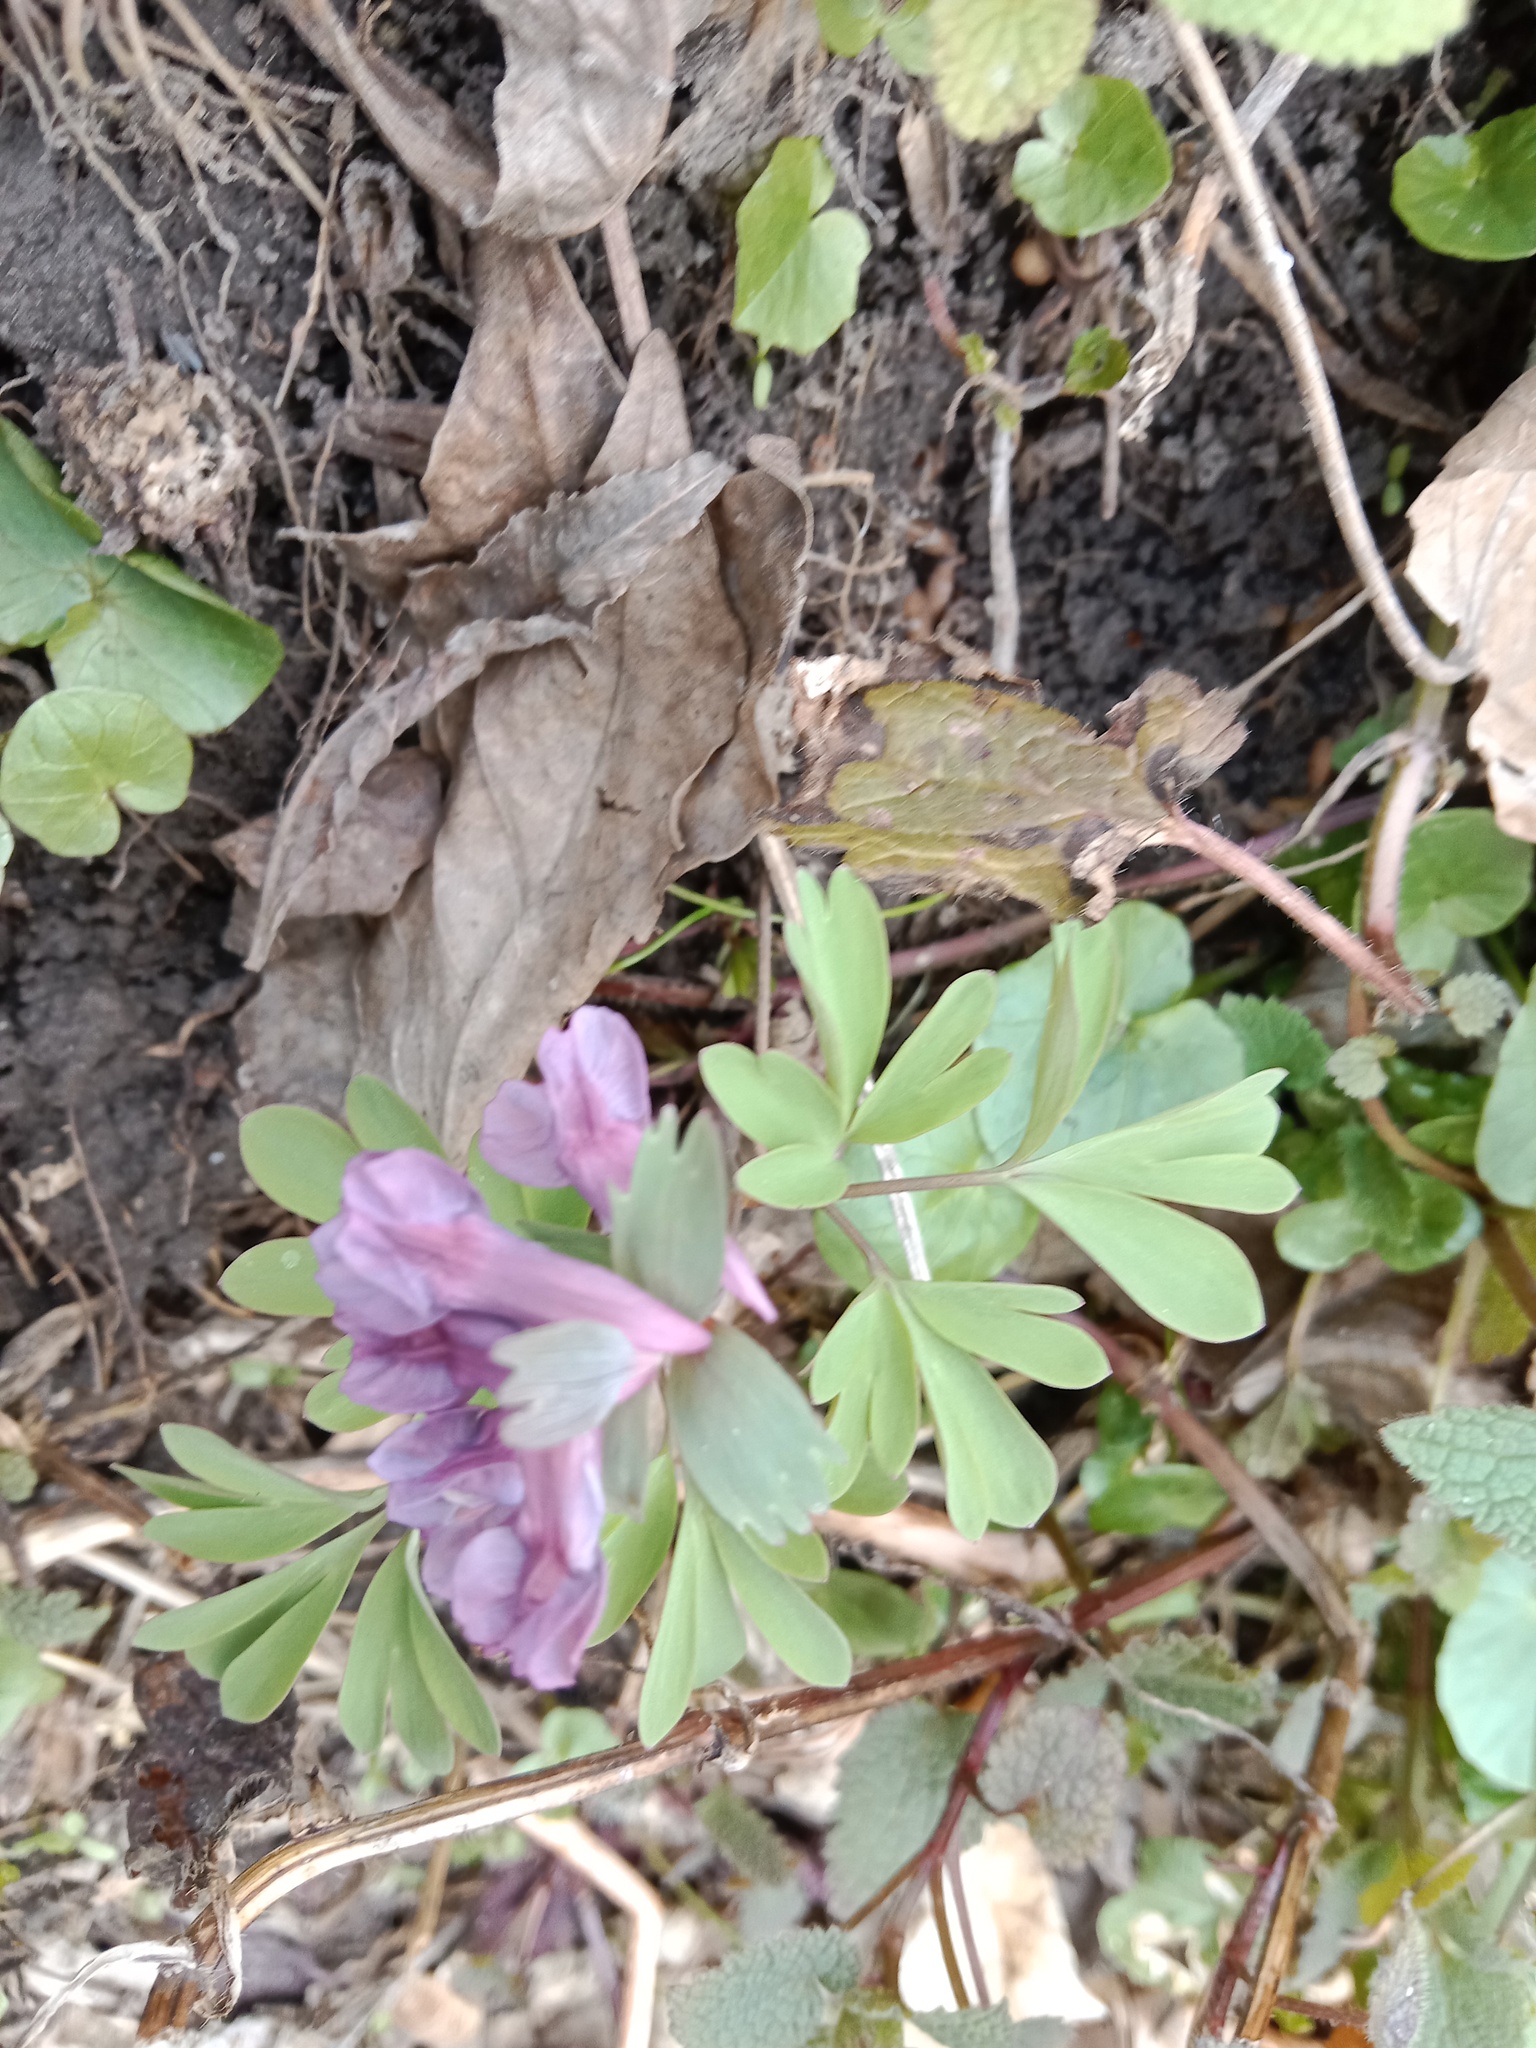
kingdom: Plantae
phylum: Tracheophyta
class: Magnoliopsida
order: Ranunculales
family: Papaveraceae
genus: Corydalis
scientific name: Corydalis solida
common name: Bird-in-a-bush
